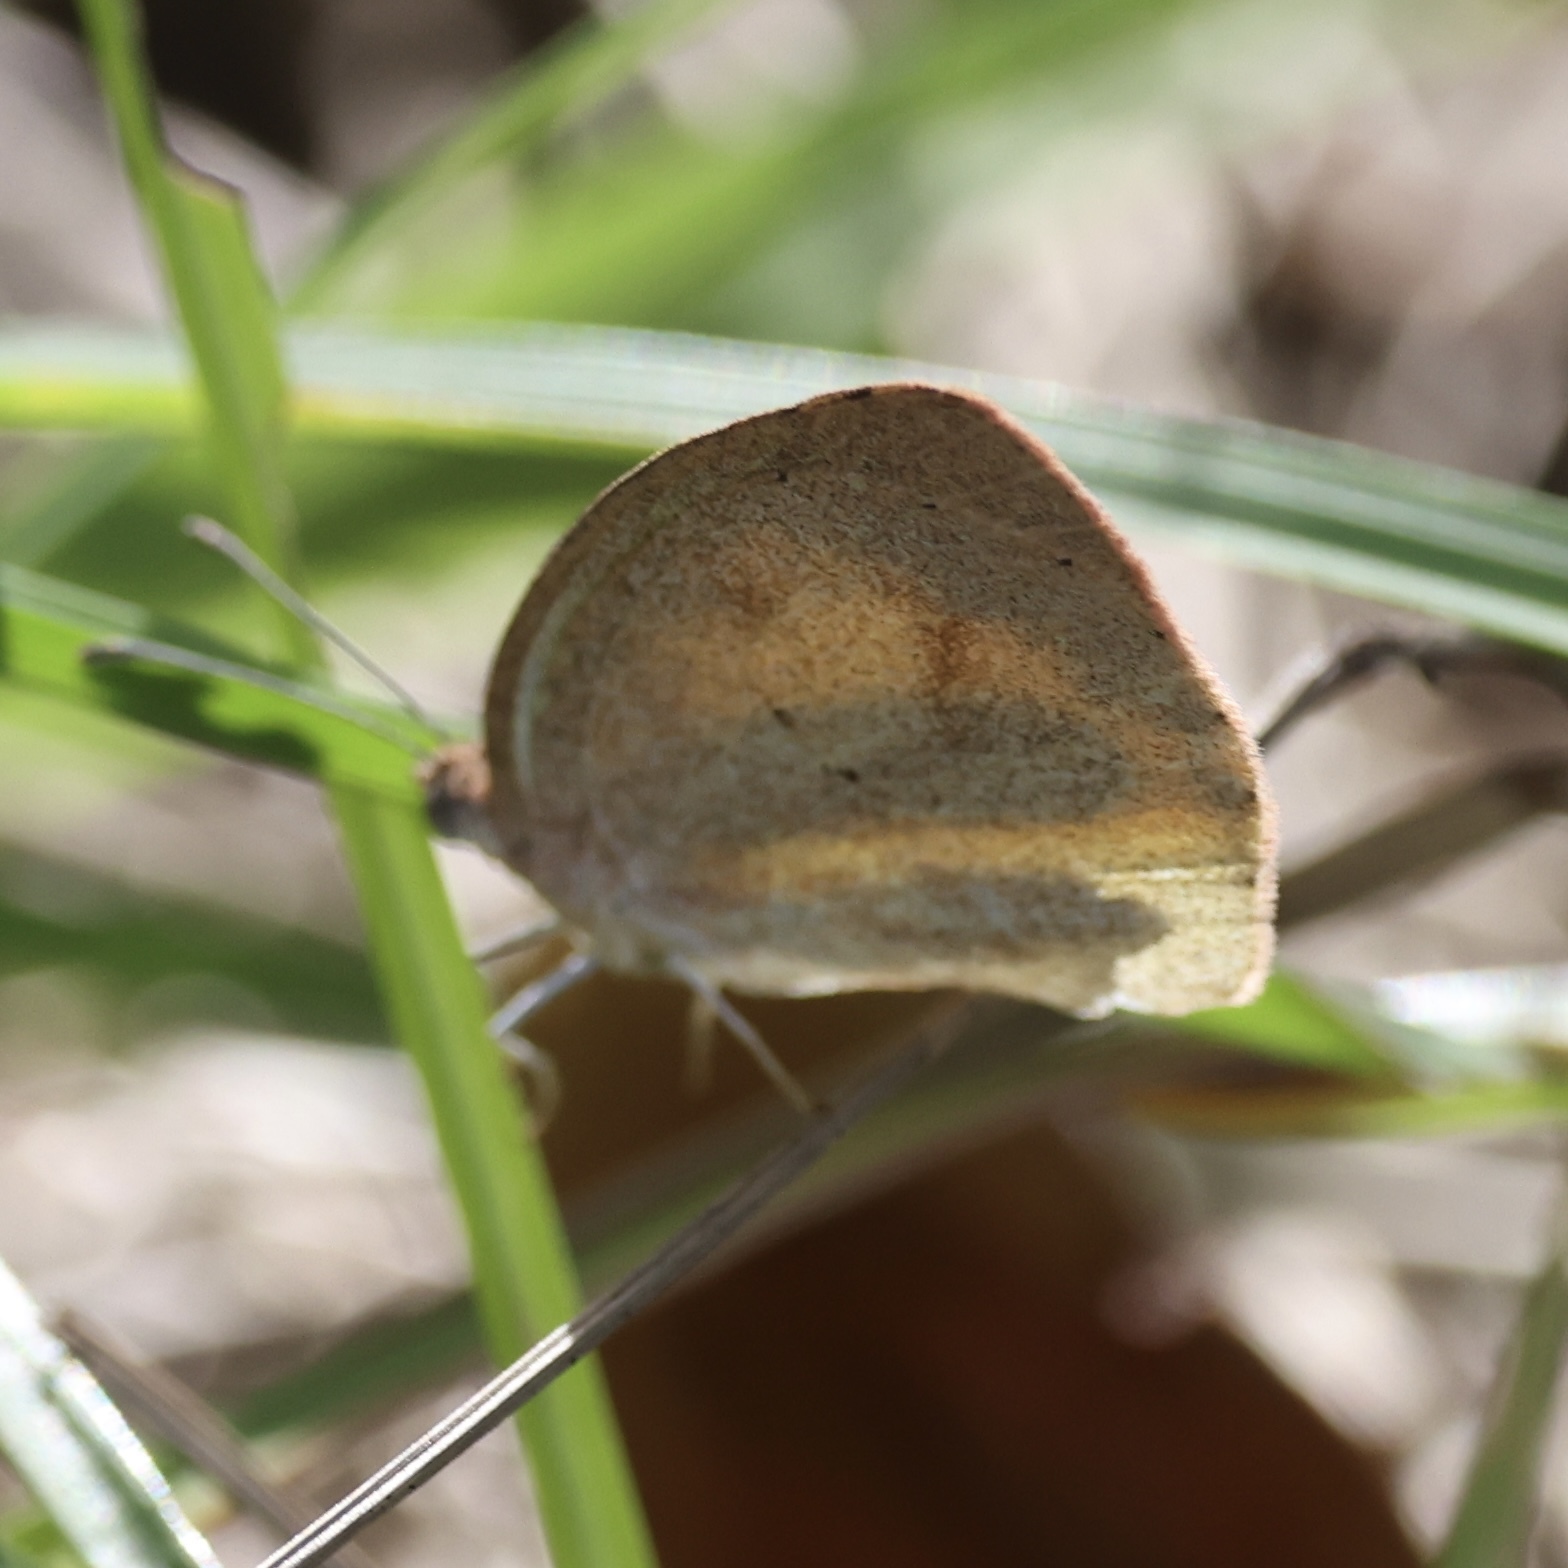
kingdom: Animalia
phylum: Arthropoda
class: Insecta
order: Lepidoptera
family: Pieridae
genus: Eurema
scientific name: Eurema daira
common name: Barred sulphur
